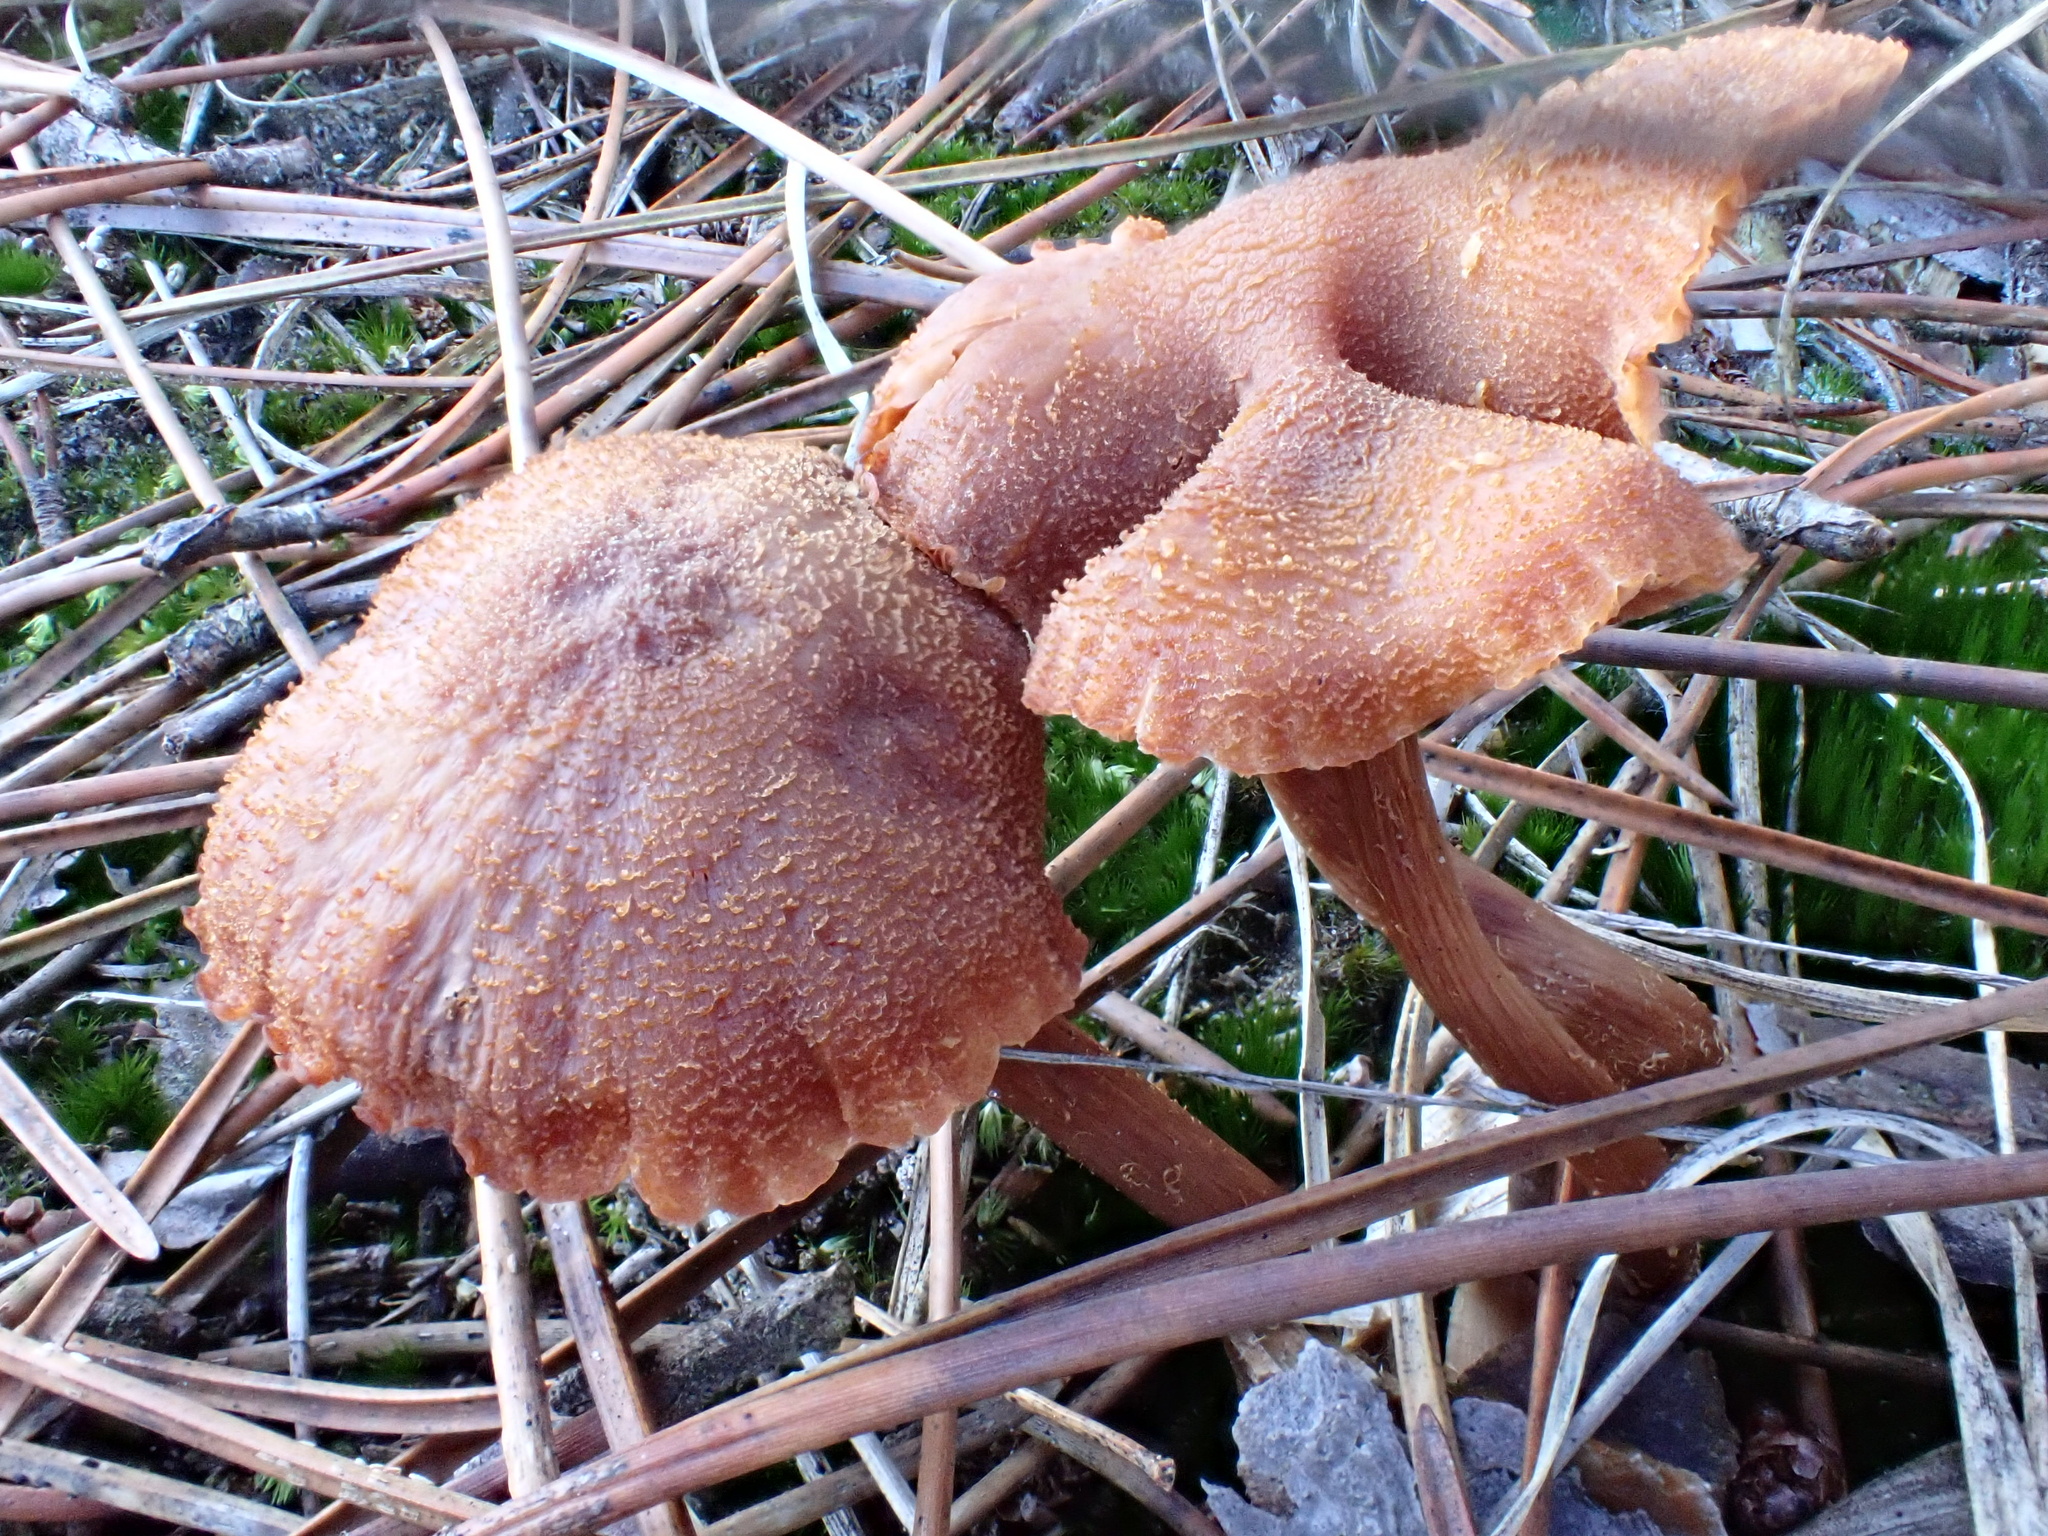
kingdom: Fungi
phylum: Basidiomycota
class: Agaricomycetes
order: Agaricales
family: Hydnangiaceae
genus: Laccaria
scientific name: Laccaria proxima
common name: Scurfy deceiver
